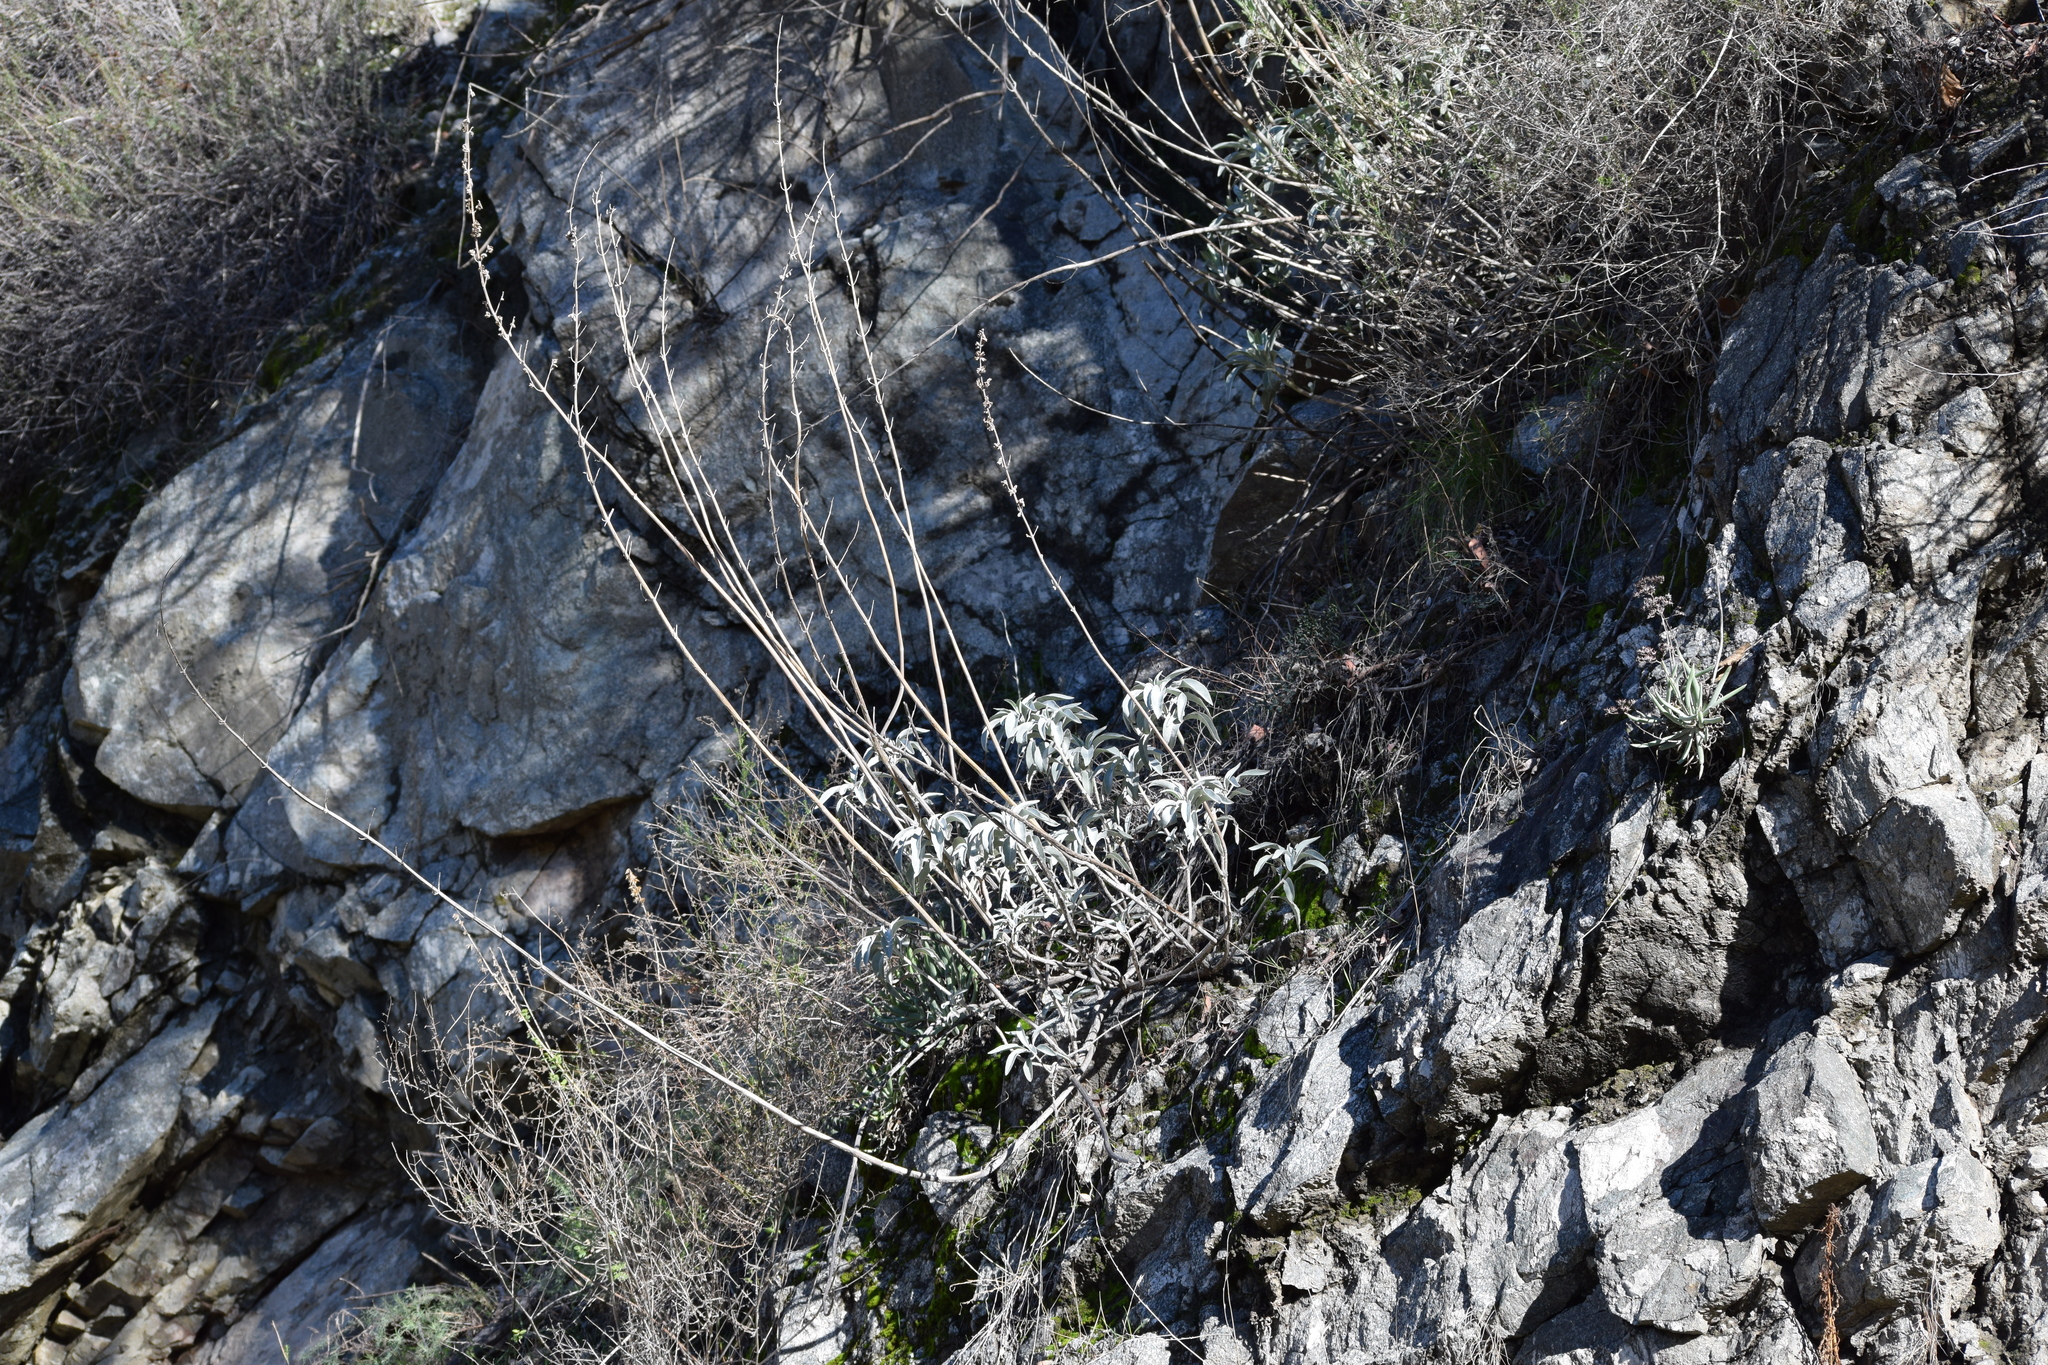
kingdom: Plantae
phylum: Tracheophyta
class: Magnoliopsida
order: Lamiales
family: Lamiaceae
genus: Salvia
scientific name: Salvia apiana
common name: White sage
